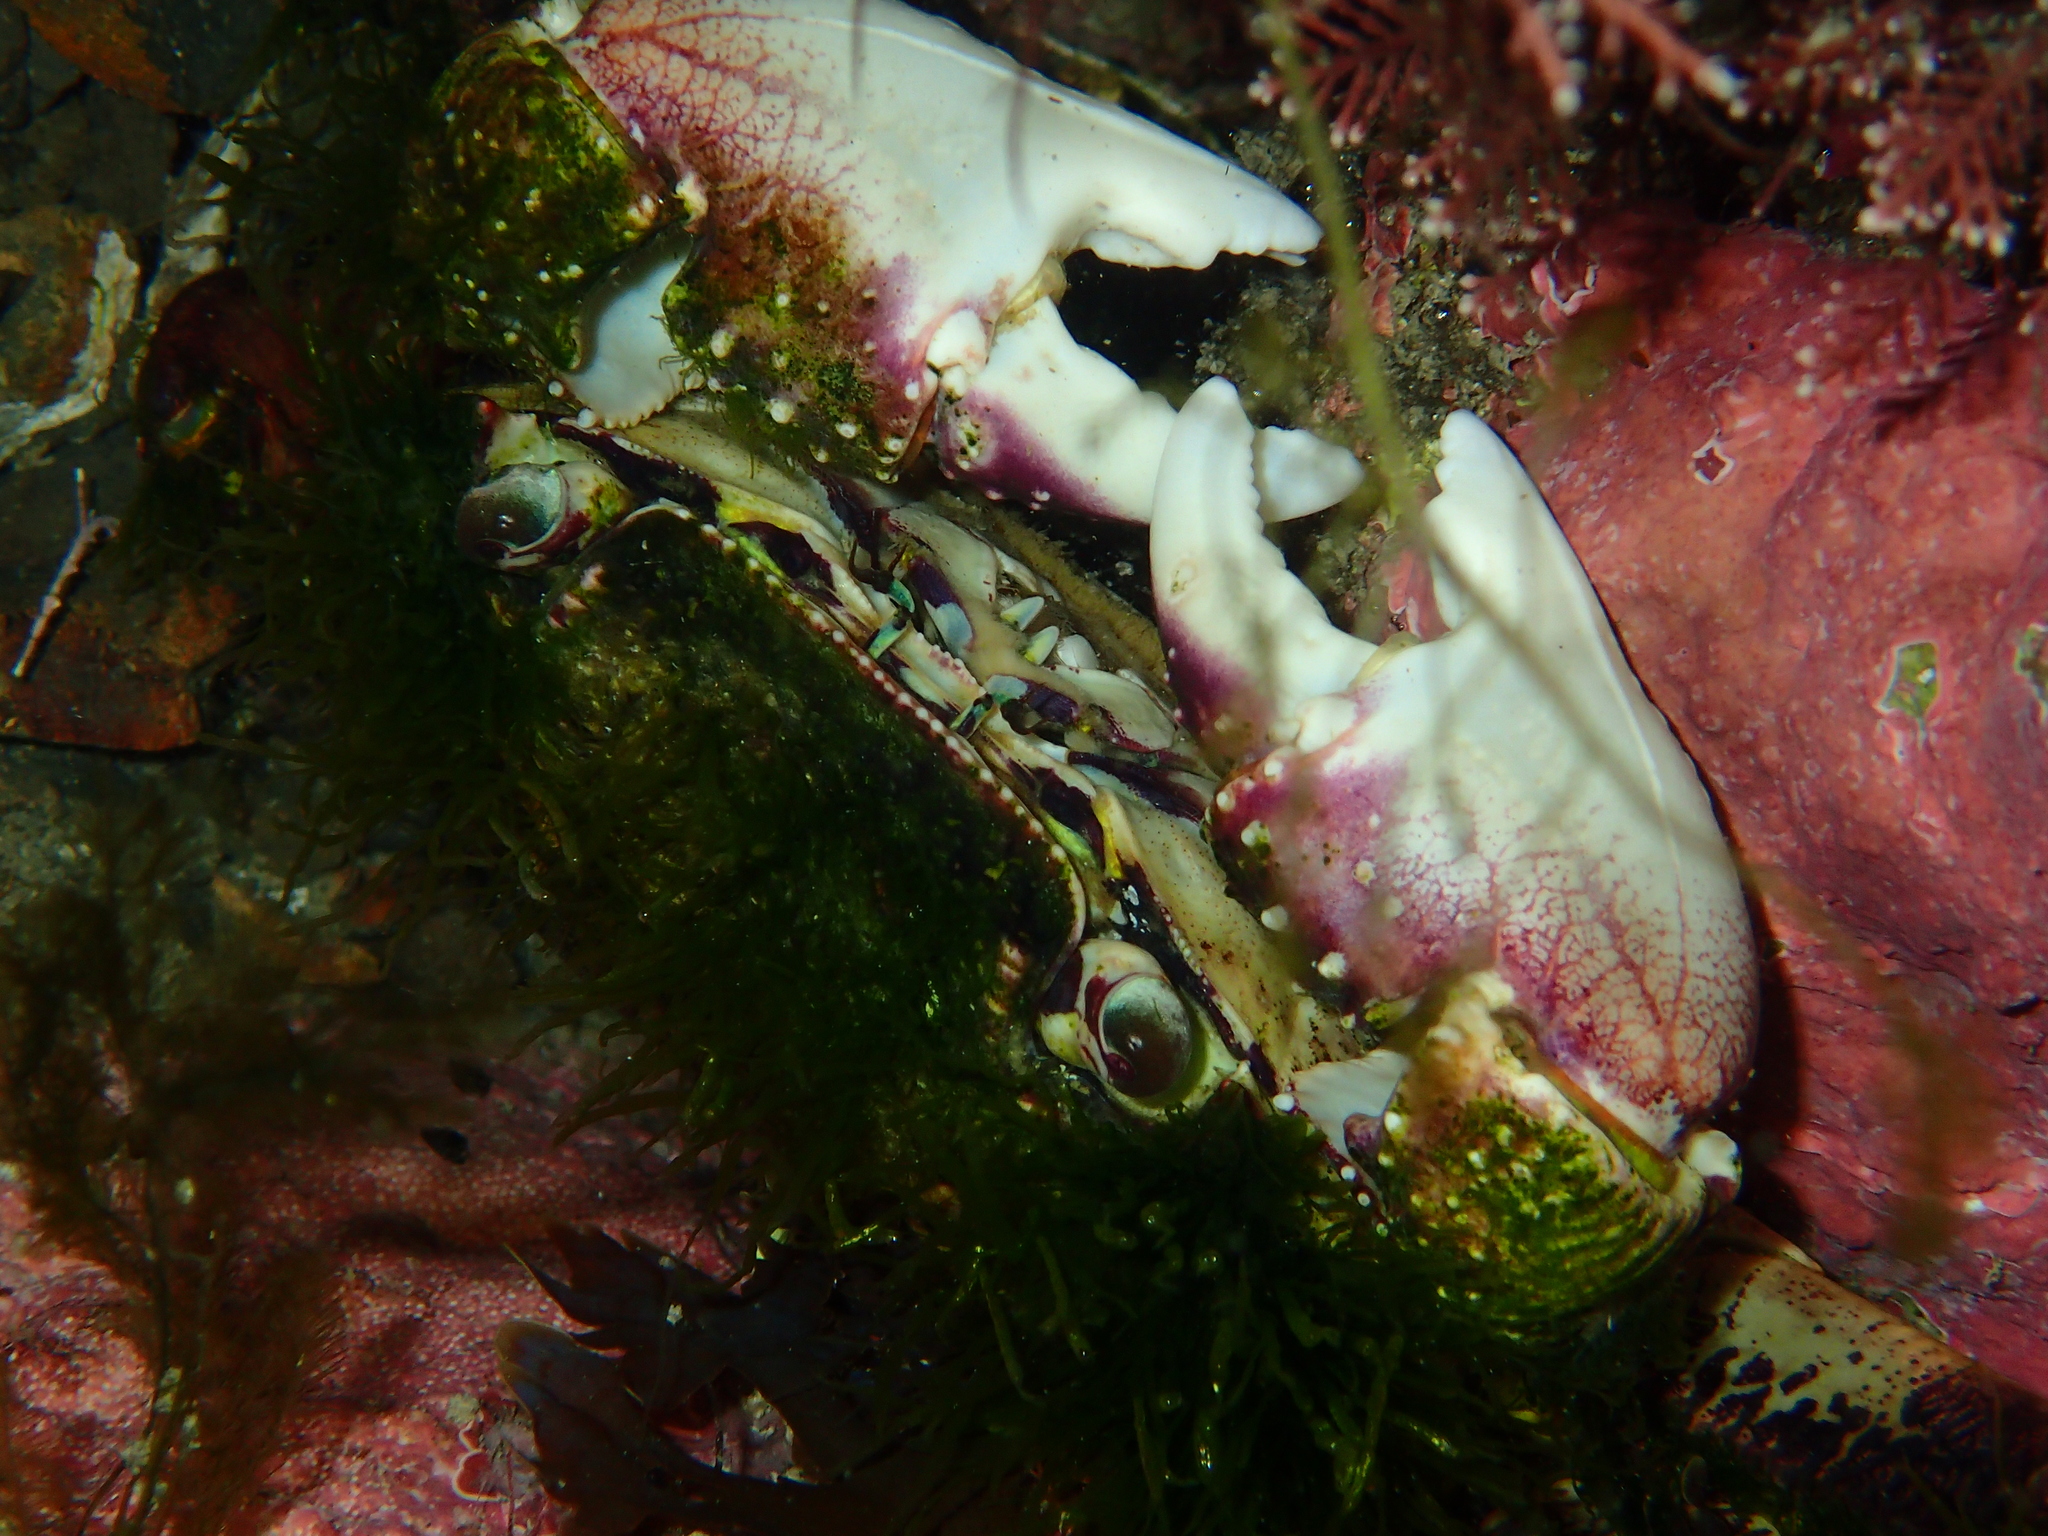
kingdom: Animalia
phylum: Arthropoda
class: Malacostraca
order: Decapoda
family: Grapsidae
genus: Leptograpsus
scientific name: Leptograpsus variegatus
